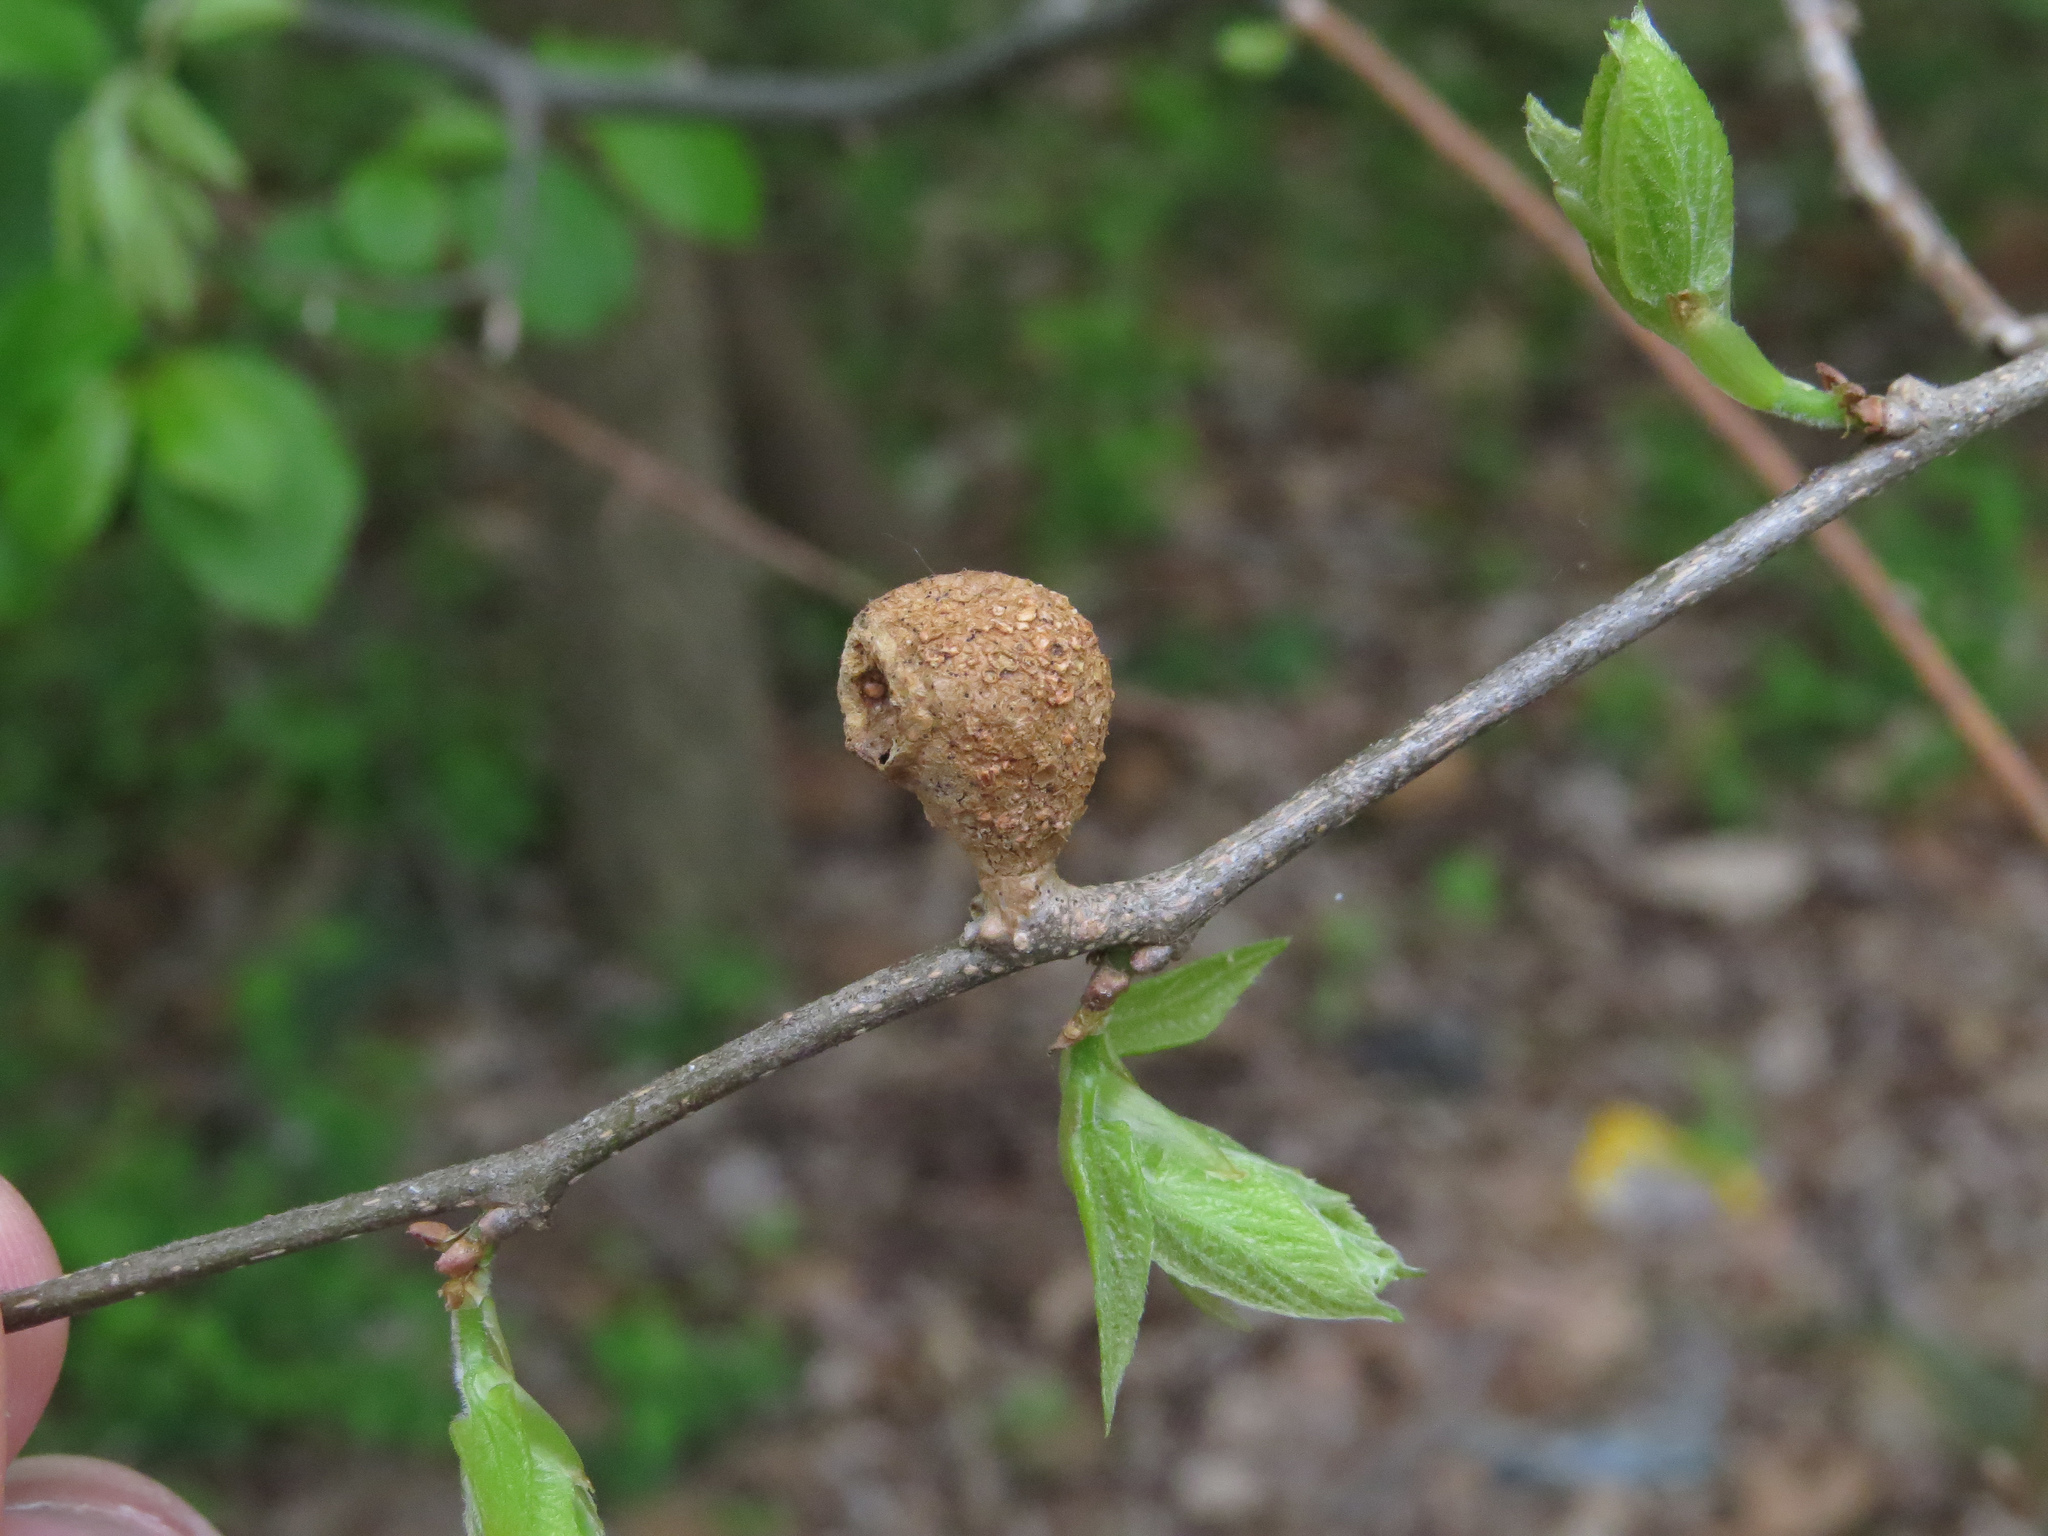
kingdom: Animalia
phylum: Arthropoda
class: Insecta
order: Hemiptera
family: Aphalaridae
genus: Pachypsylla
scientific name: Pachypsylla venusta
